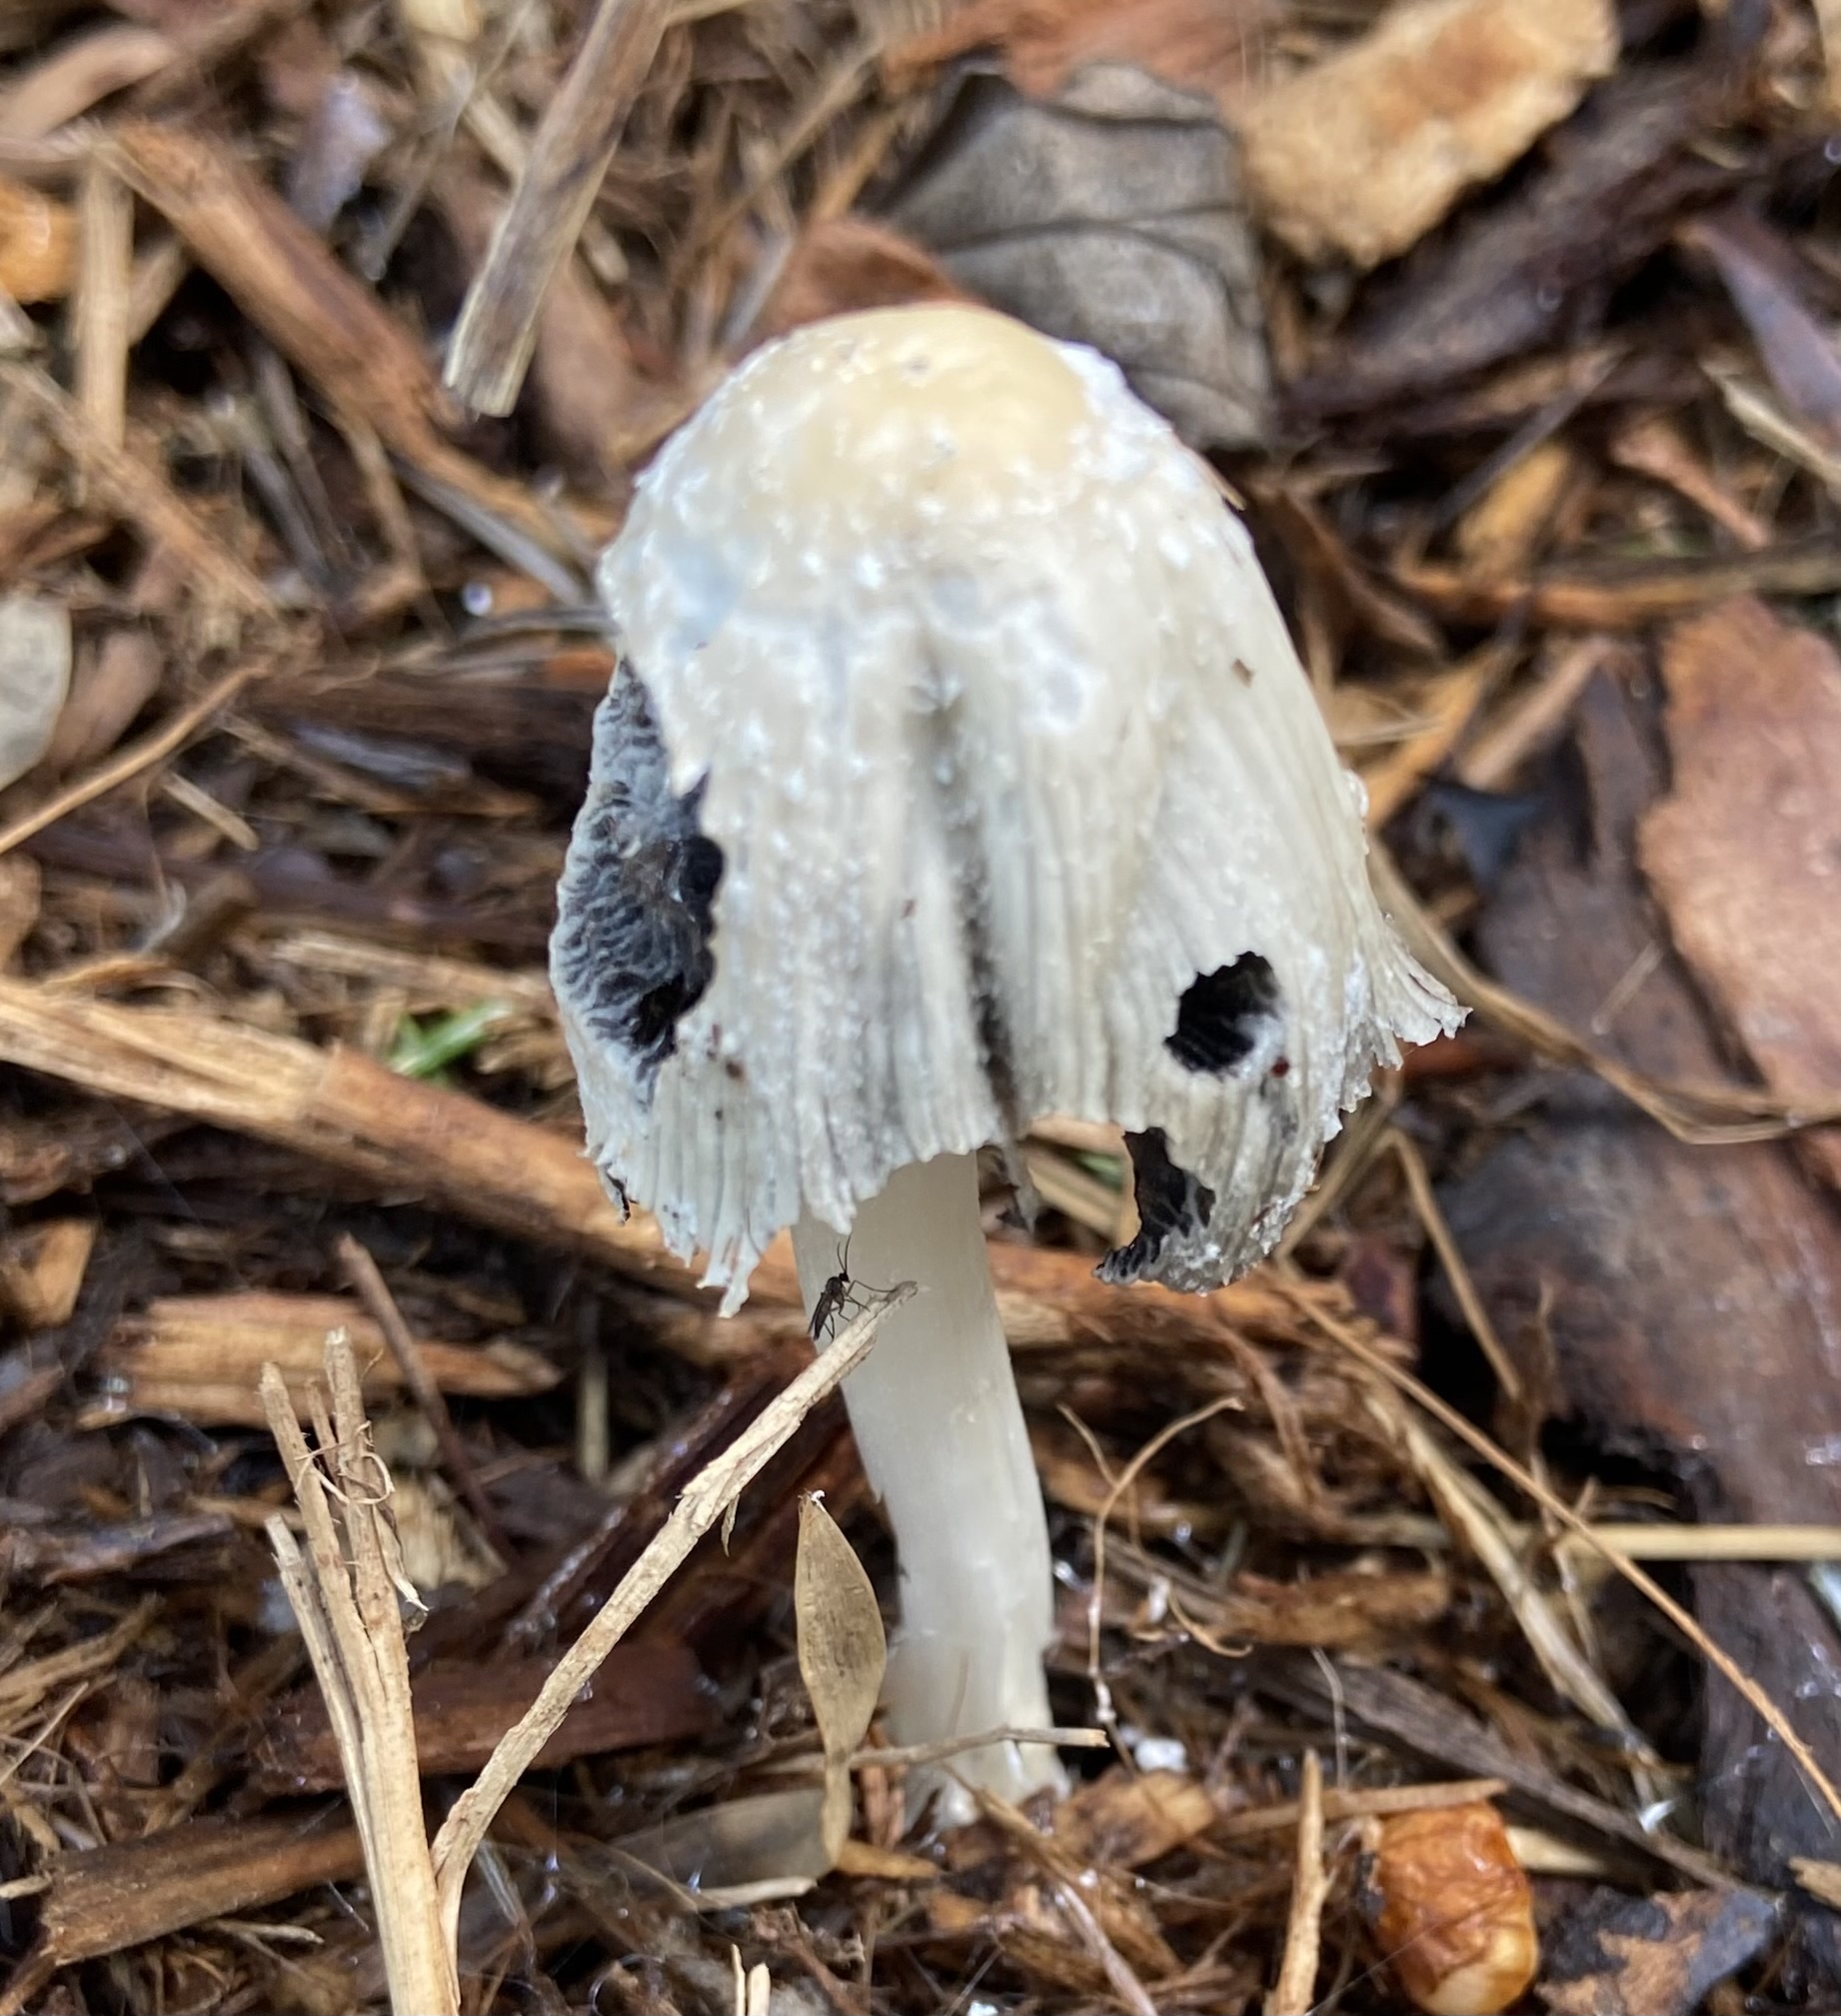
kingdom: Fungi
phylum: Basidiomycota
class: Agaricomycetes
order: Agaricales
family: Psathyrellaceae
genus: Coprinellus
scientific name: Coprinellus flocculosus
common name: Flocculose inkcap
